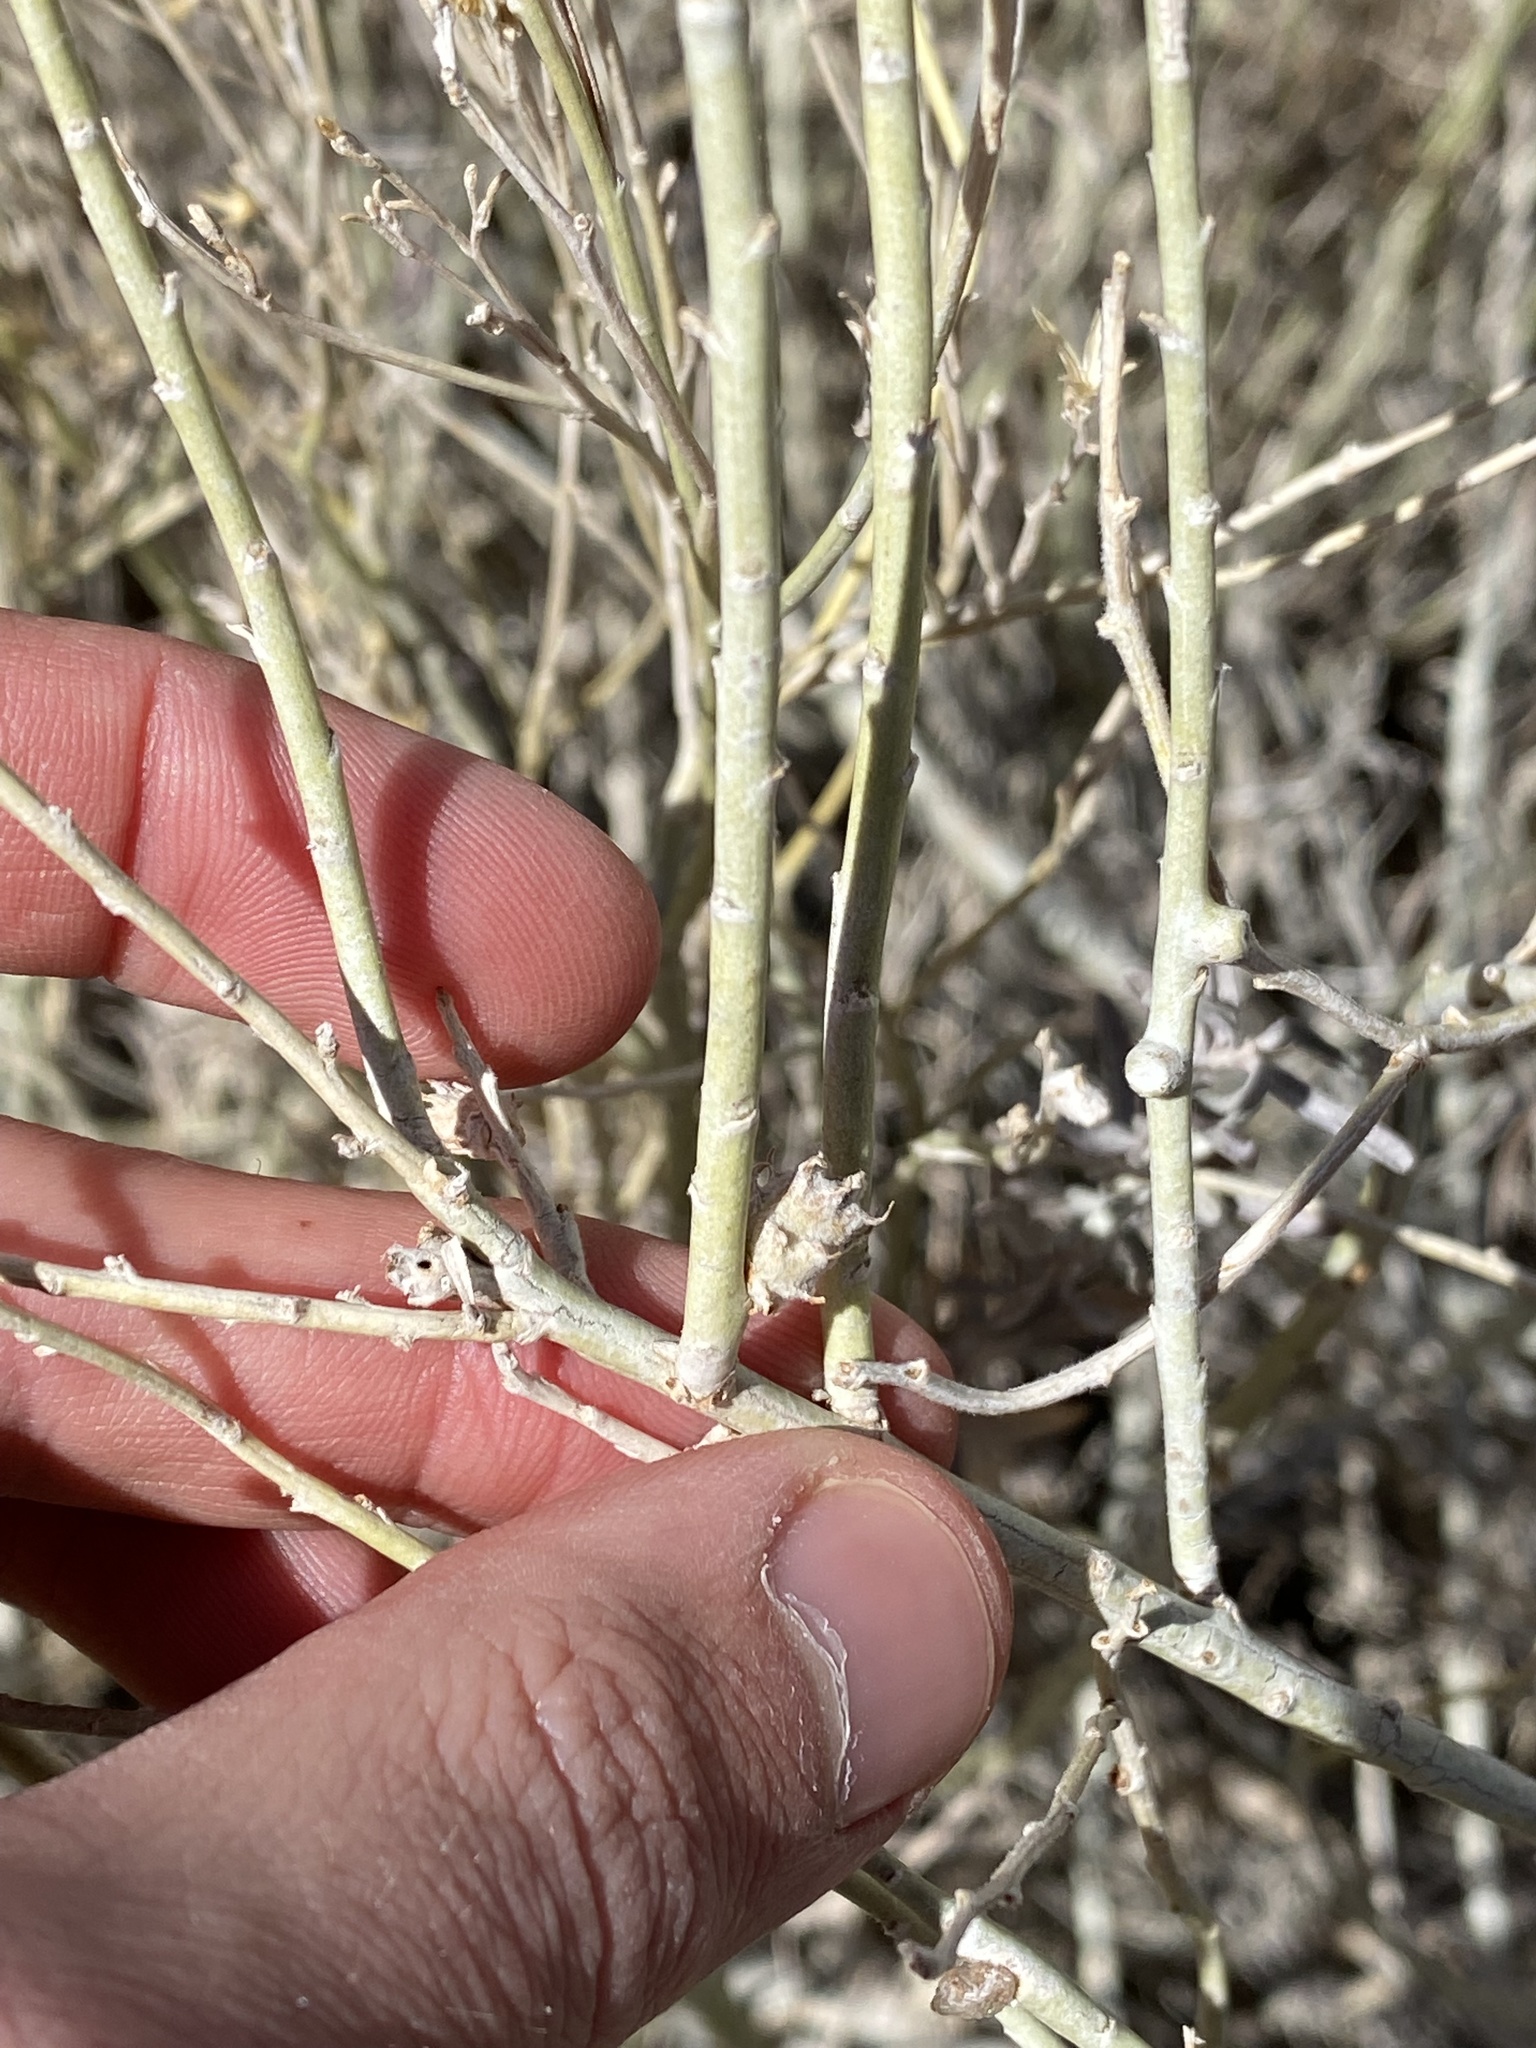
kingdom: Animalia
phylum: Arthropoda
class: Insecta
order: Diptera
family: Cecidomyiidae
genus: Rhopalomyia
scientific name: Rhopalomyia utahensis
